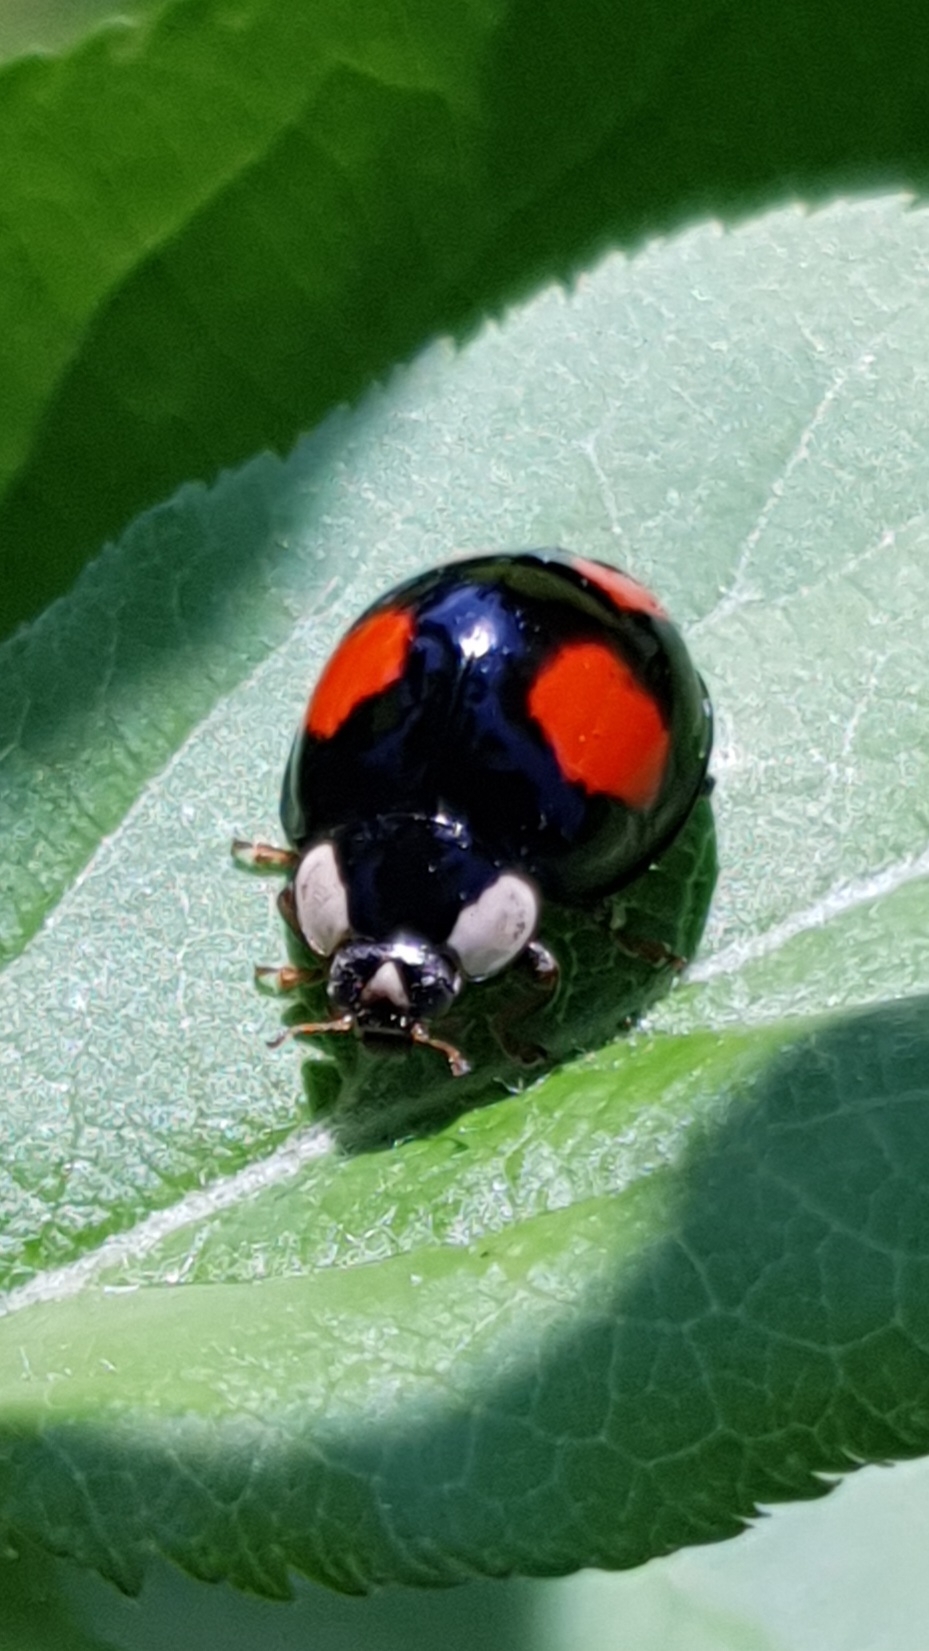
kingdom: Animalia
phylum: Arthropoda
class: Insecta
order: Coleoptera
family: Coccinellidae
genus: Harmonia
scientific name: Harmonia axyridis
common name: Harlequin ladybird
